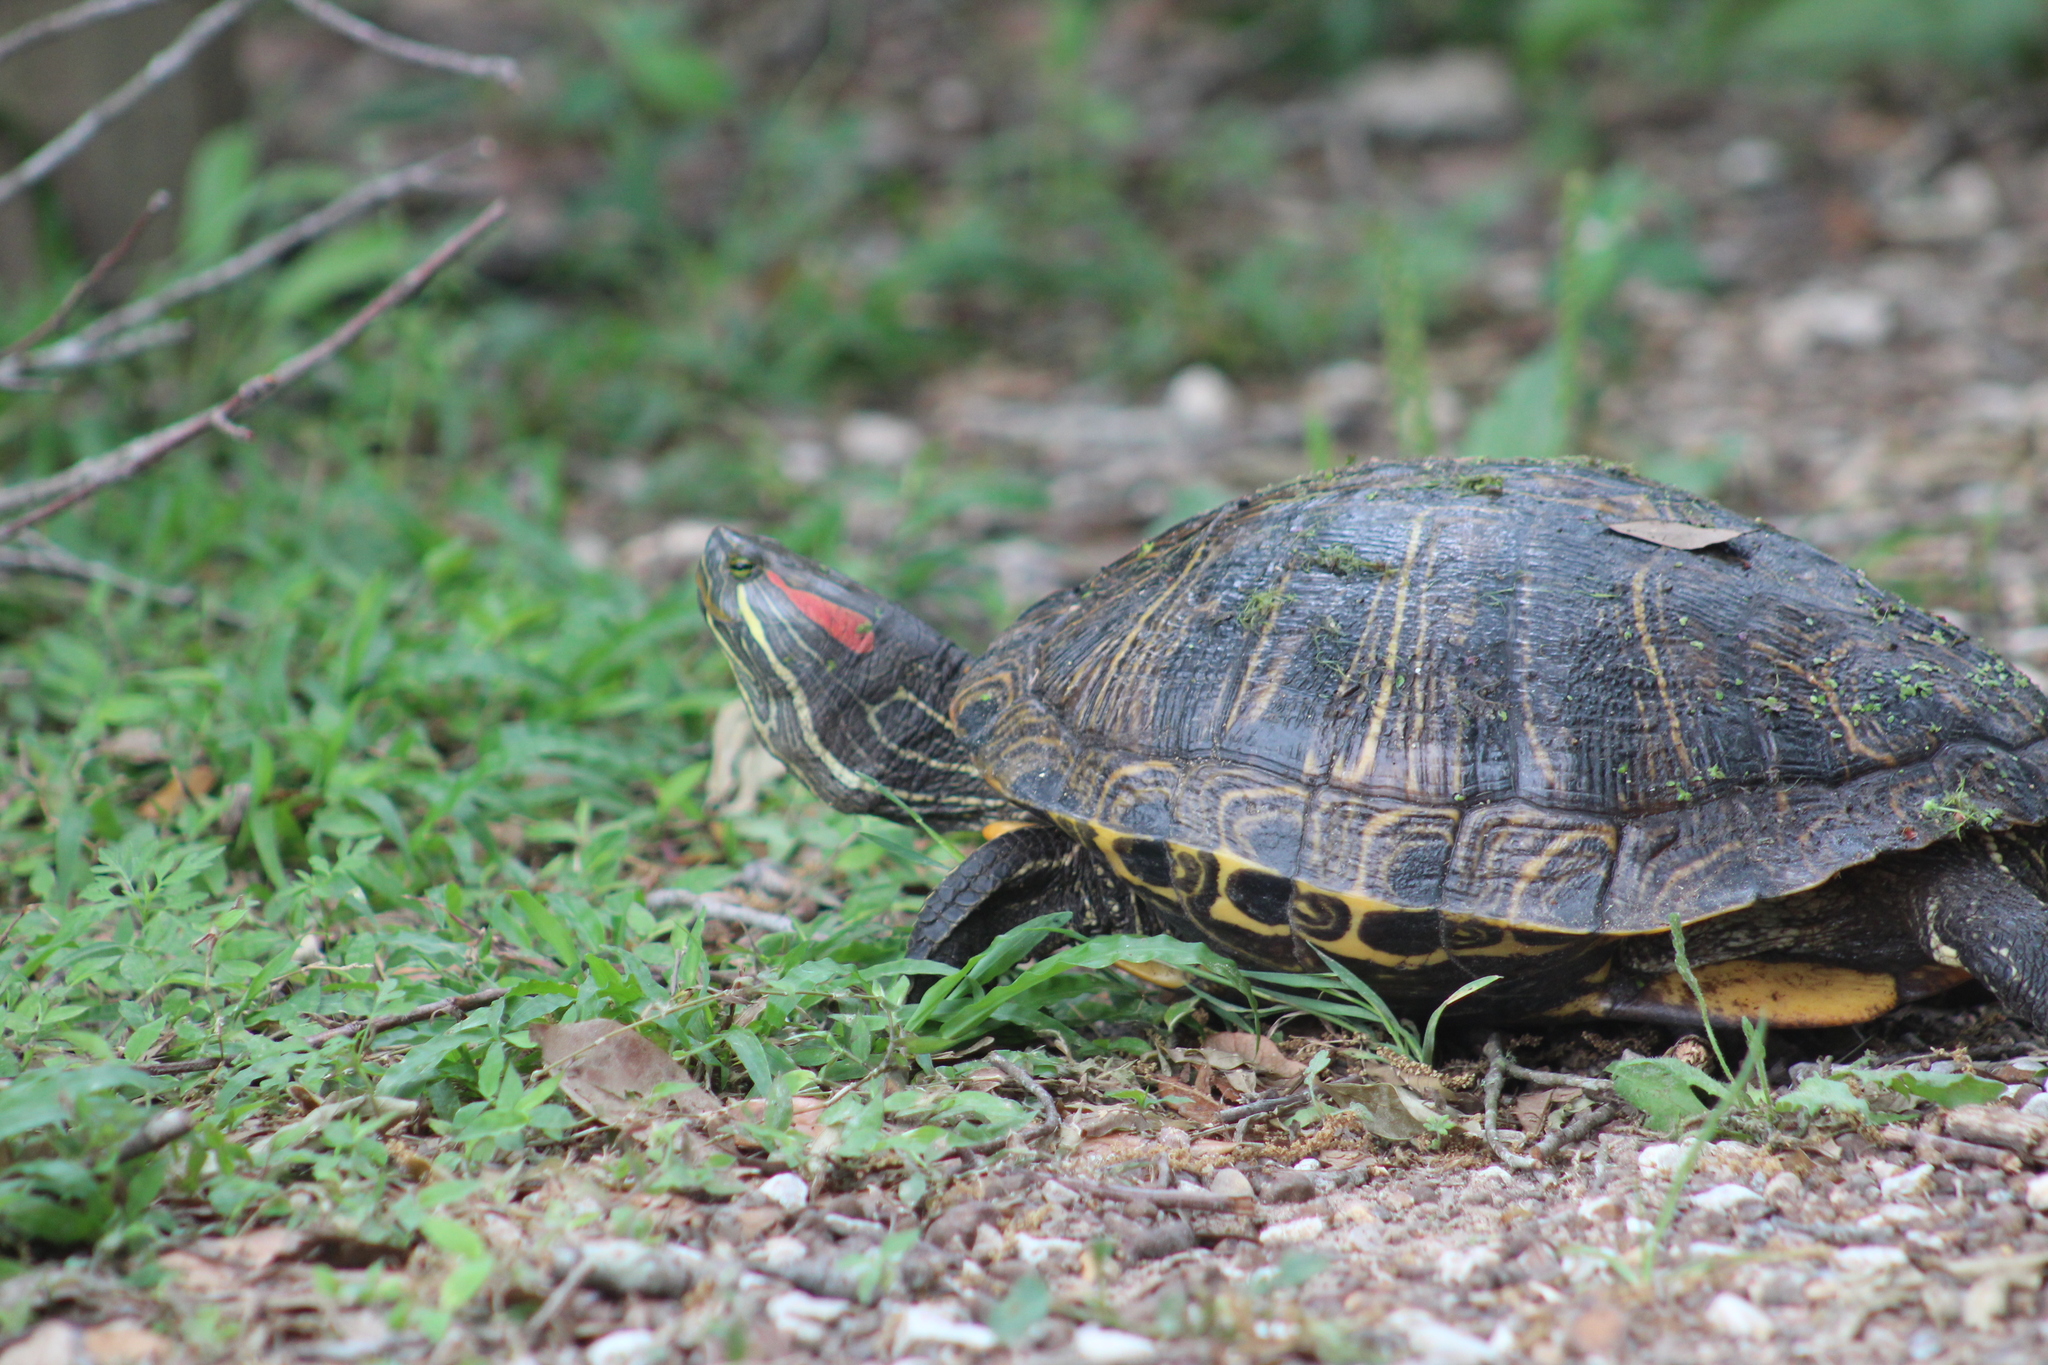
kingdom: Animalia
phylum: Chordata
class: Testudines
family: Emydidae
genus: Trachemys
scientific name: Trachemys scripta
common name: Slider
